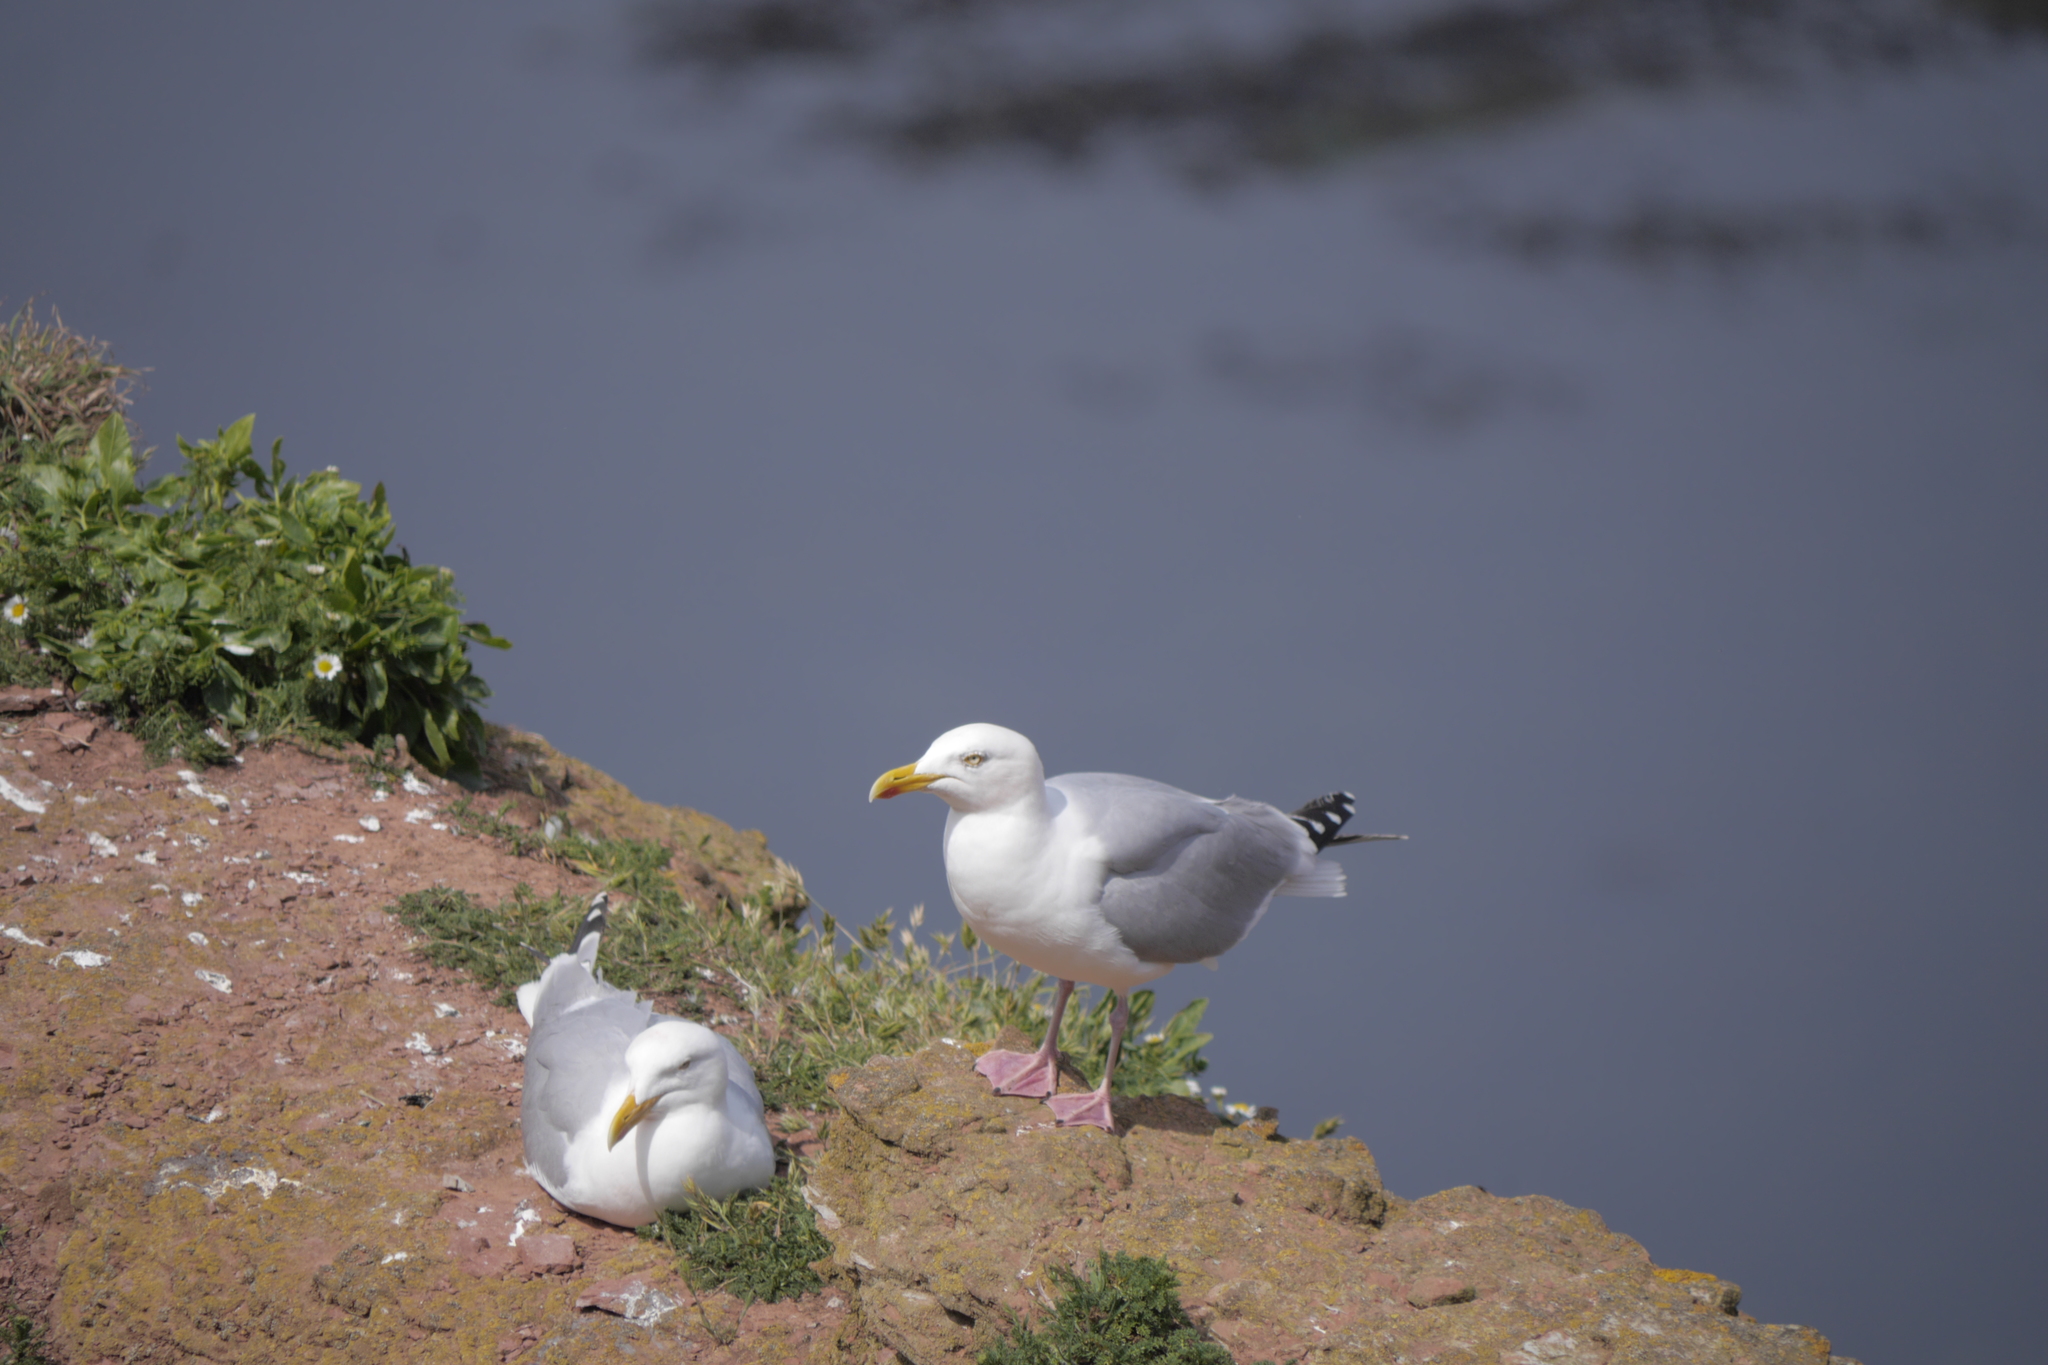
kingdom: Animalia
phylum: Chordata
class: Aves
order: Charadriiformes
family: Laridae
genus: Larus
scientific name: Larus argentatus
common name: Herring gull
